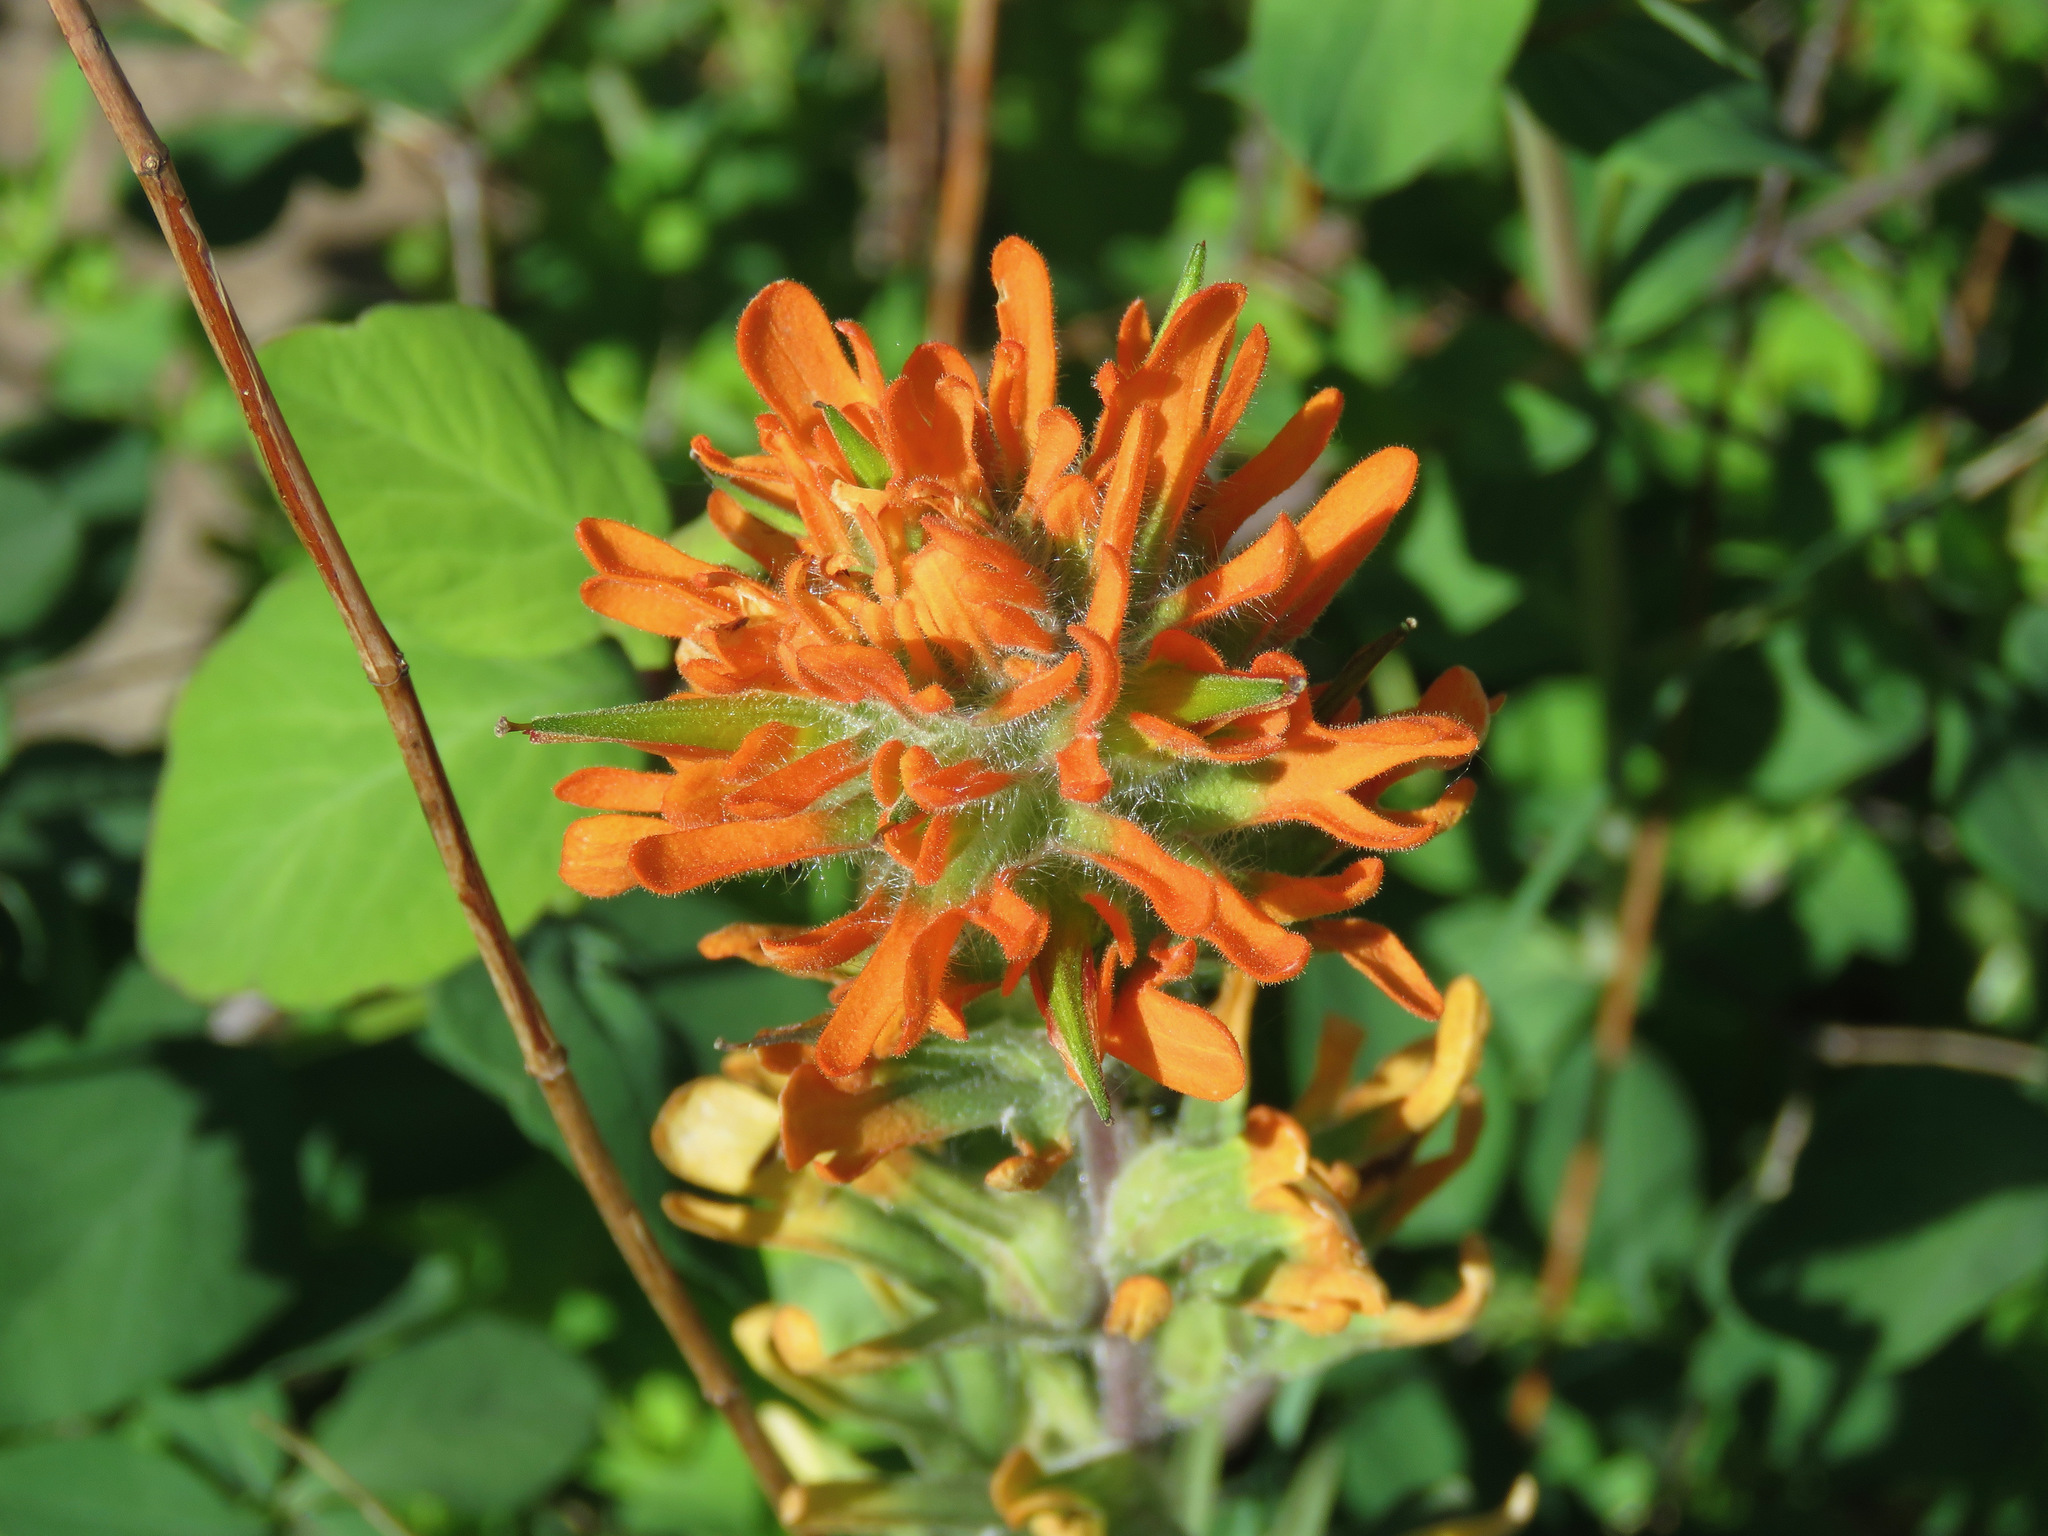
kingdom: Plantae
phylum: Tracheophyta
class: Magnoliopsida
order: Lamiales
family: Orobanchaceae
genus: Castilleja
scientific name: Castilleja hispida
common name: Bristly paintbrush
